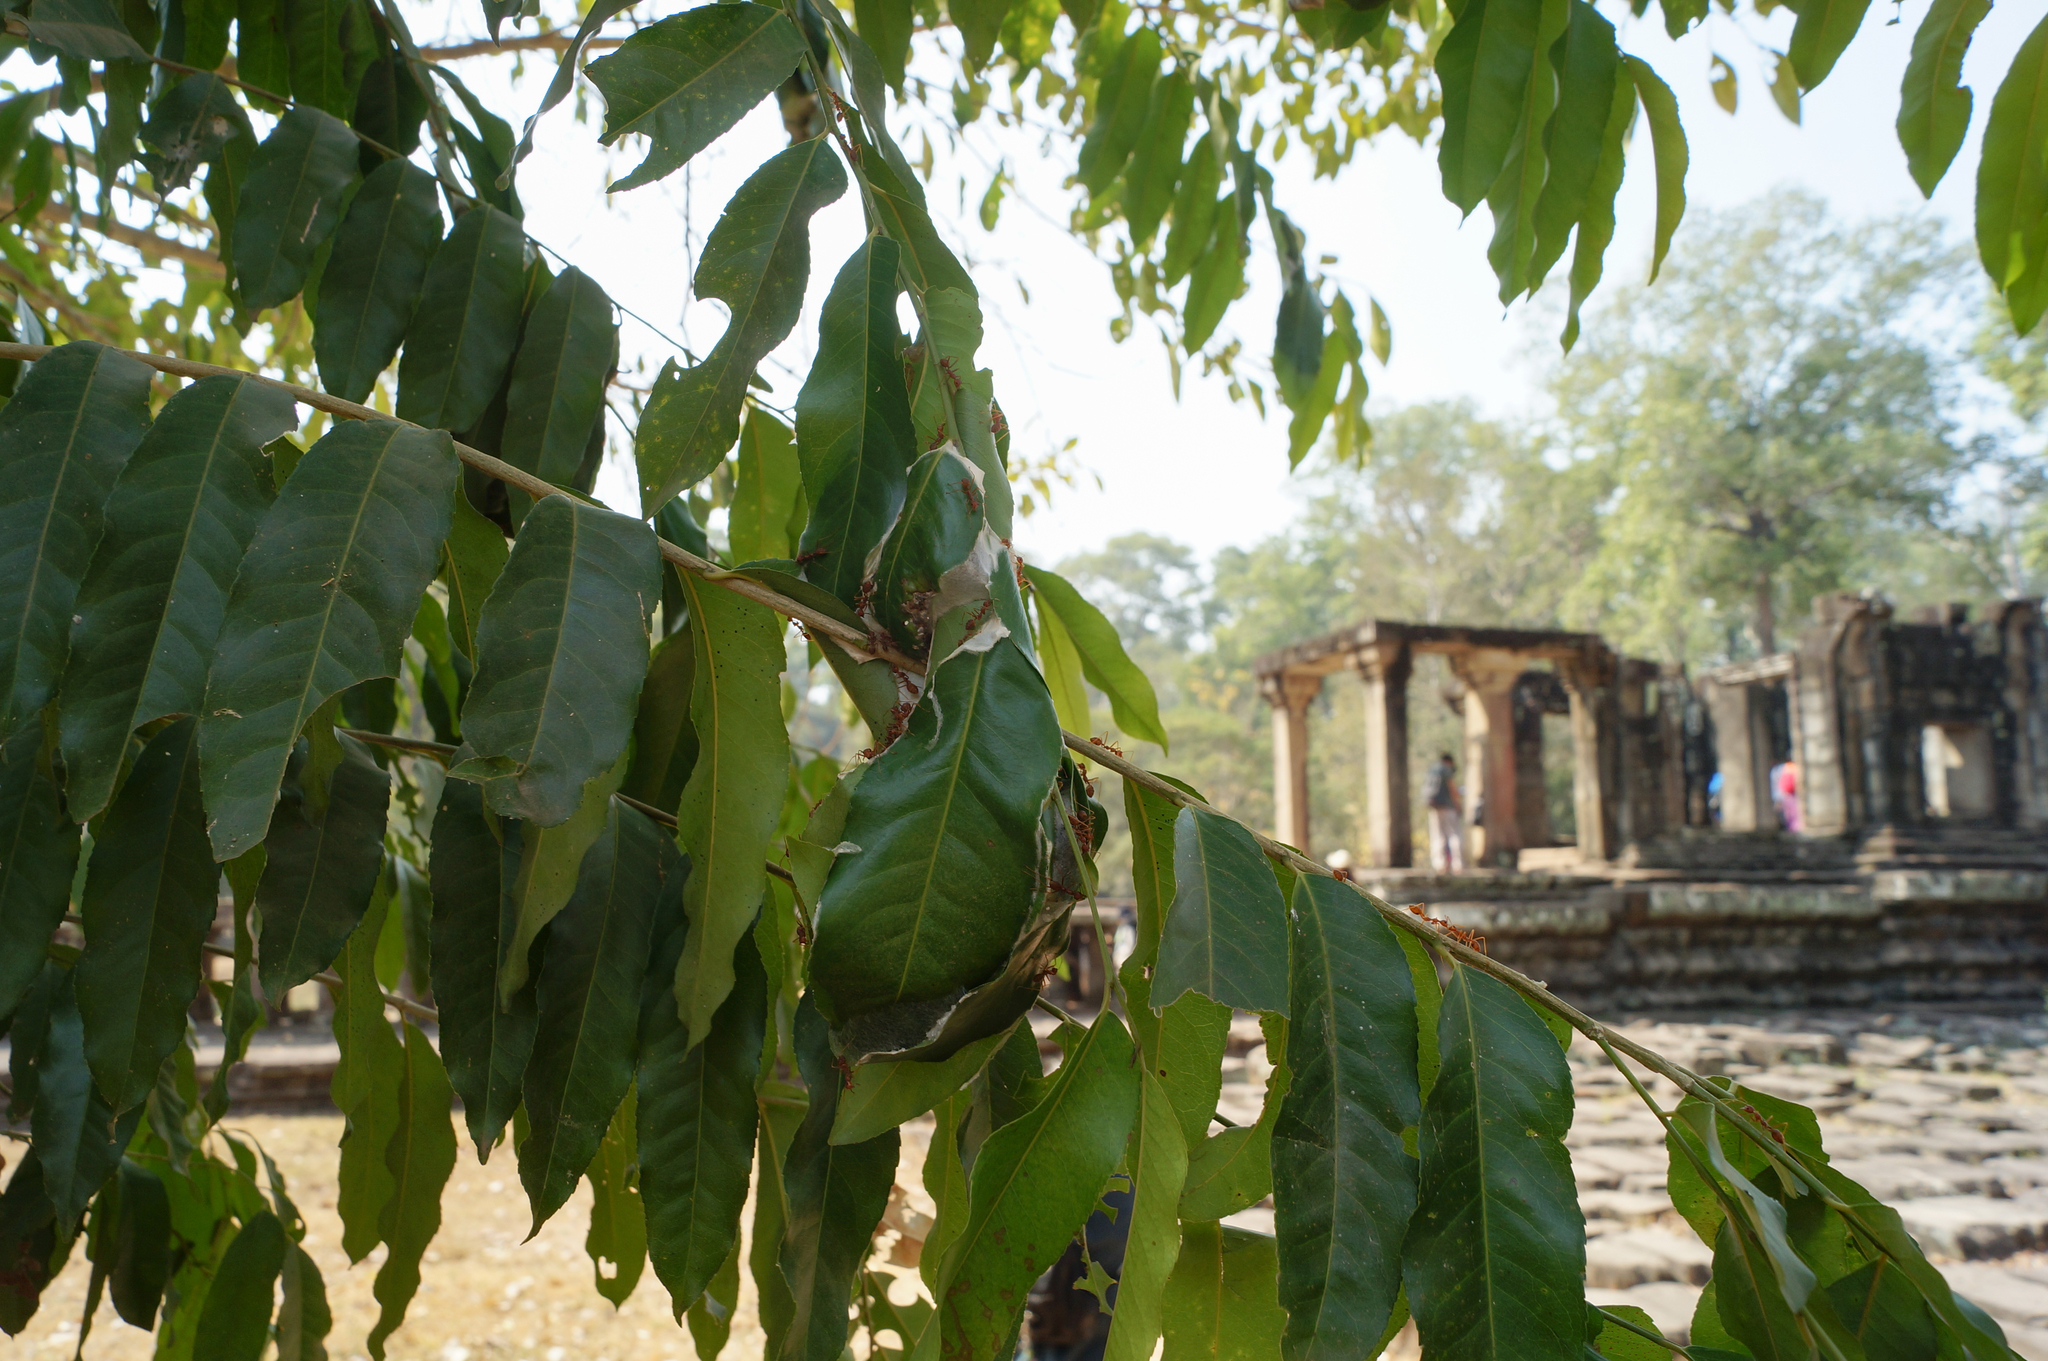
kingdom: Animalia
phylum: Arthropoda
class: Insecta
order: Hymenoptera
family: Formicidae
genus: Oecophylla
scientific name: Oecophylla smaragdina
